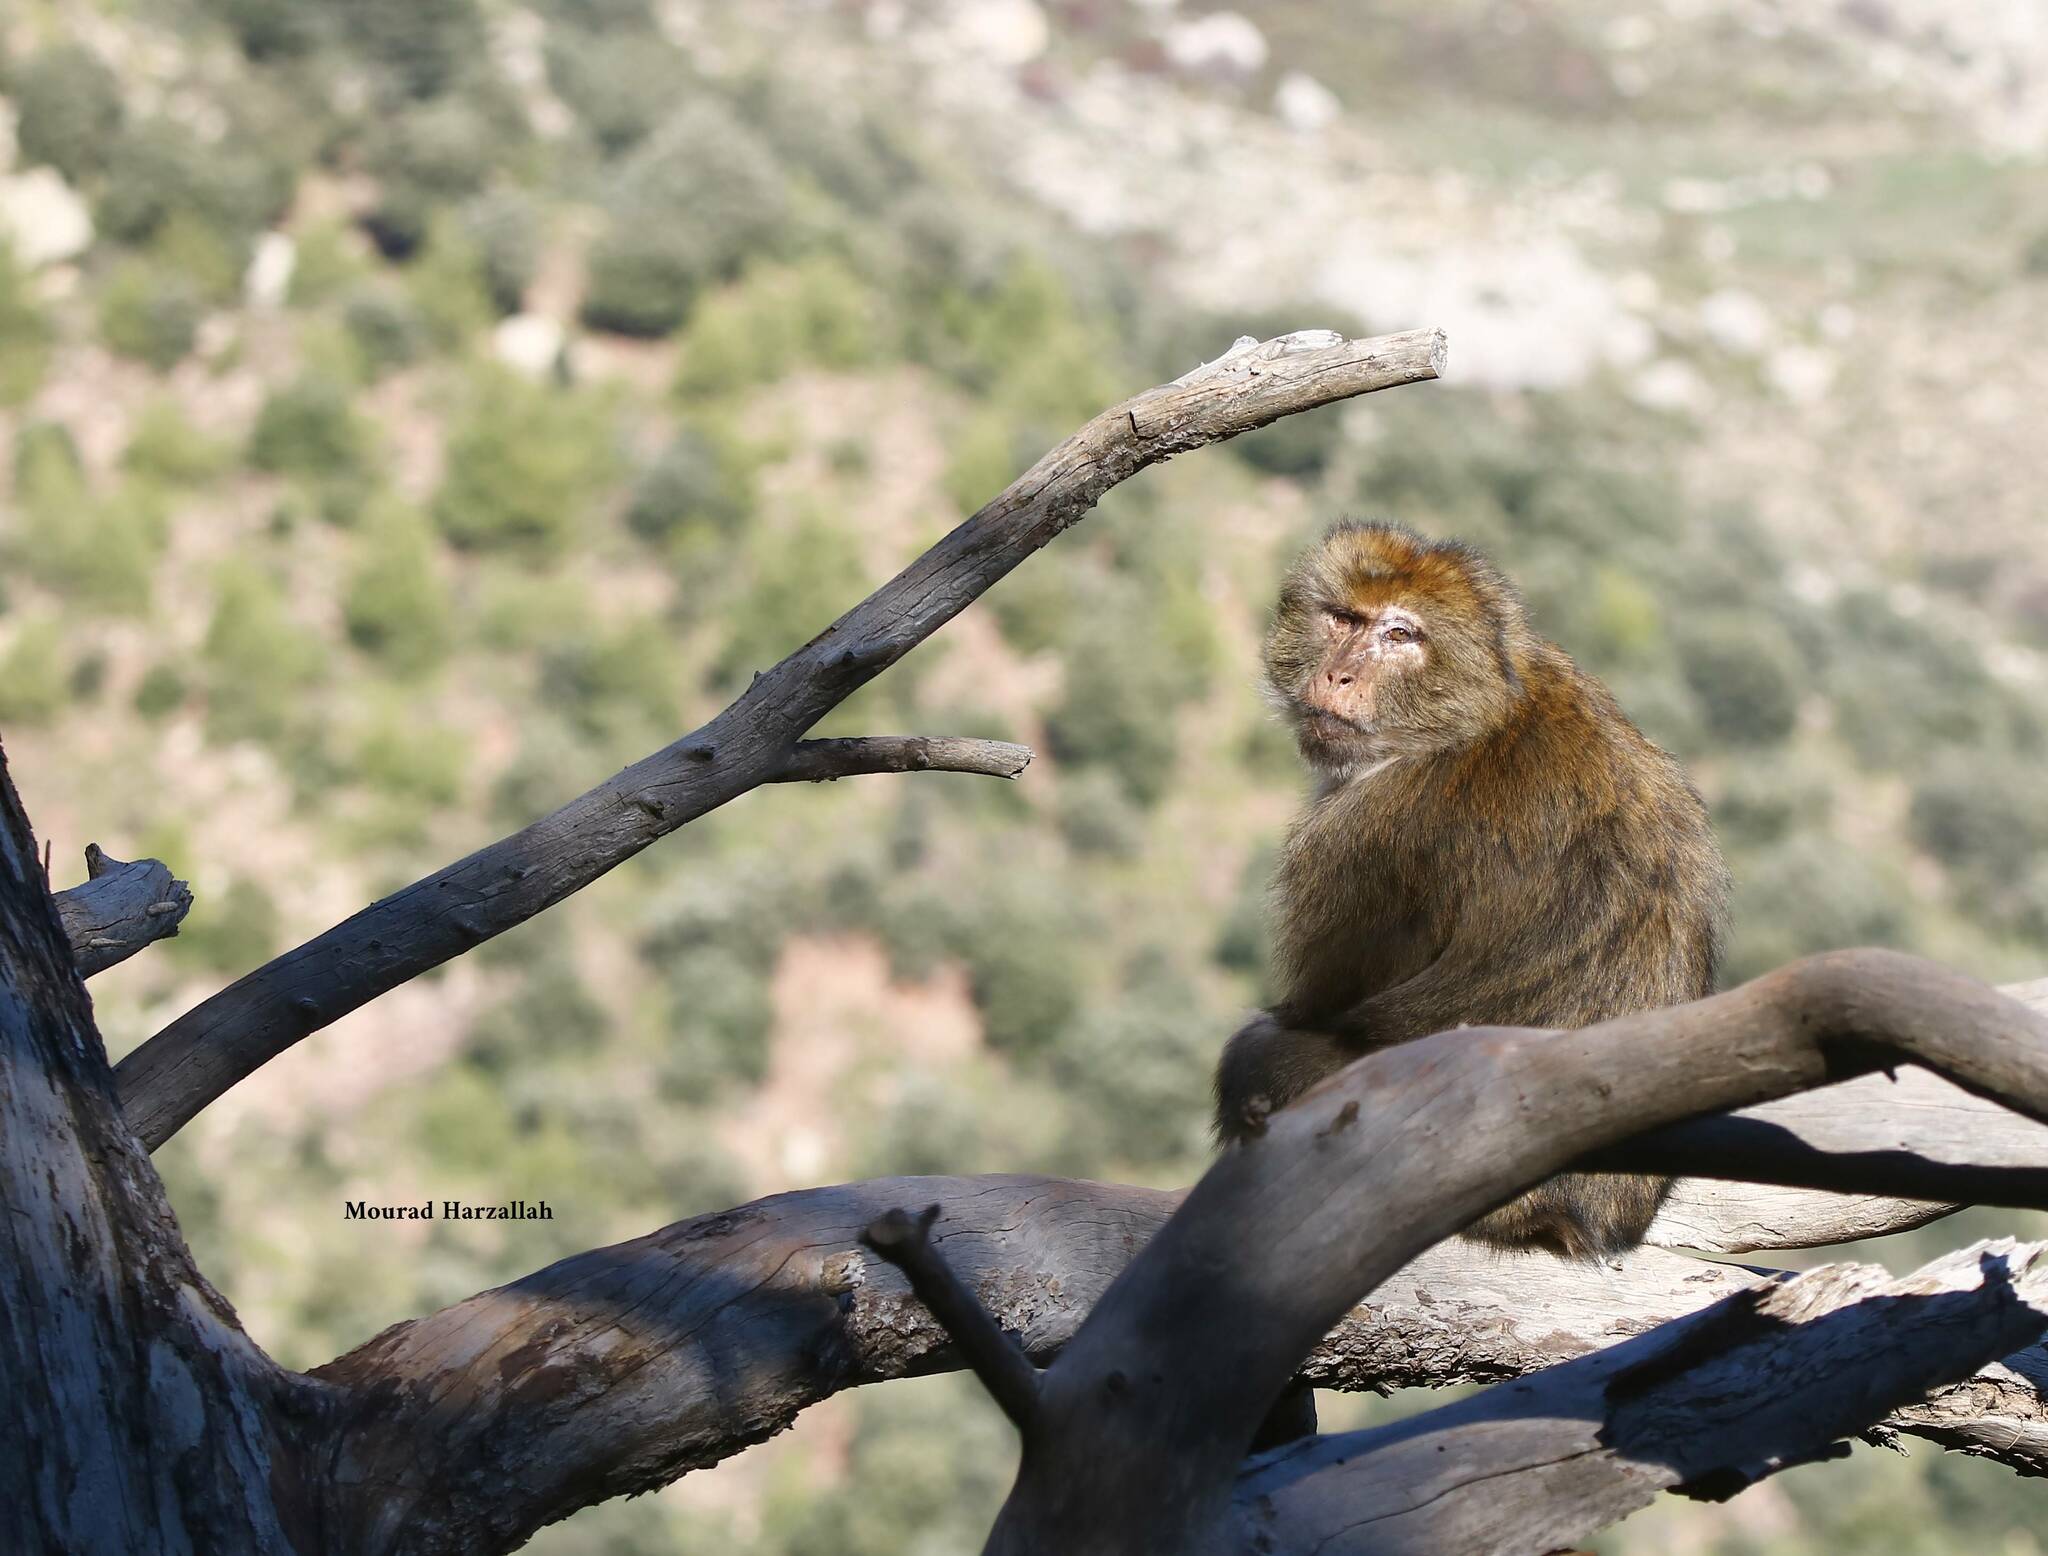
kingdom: Animalia
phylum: Chordata
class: Mammalia
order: Primates
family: Cercopithecidae
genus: Macaca
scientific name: Macaca sylvanus
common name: Barbary macaque
